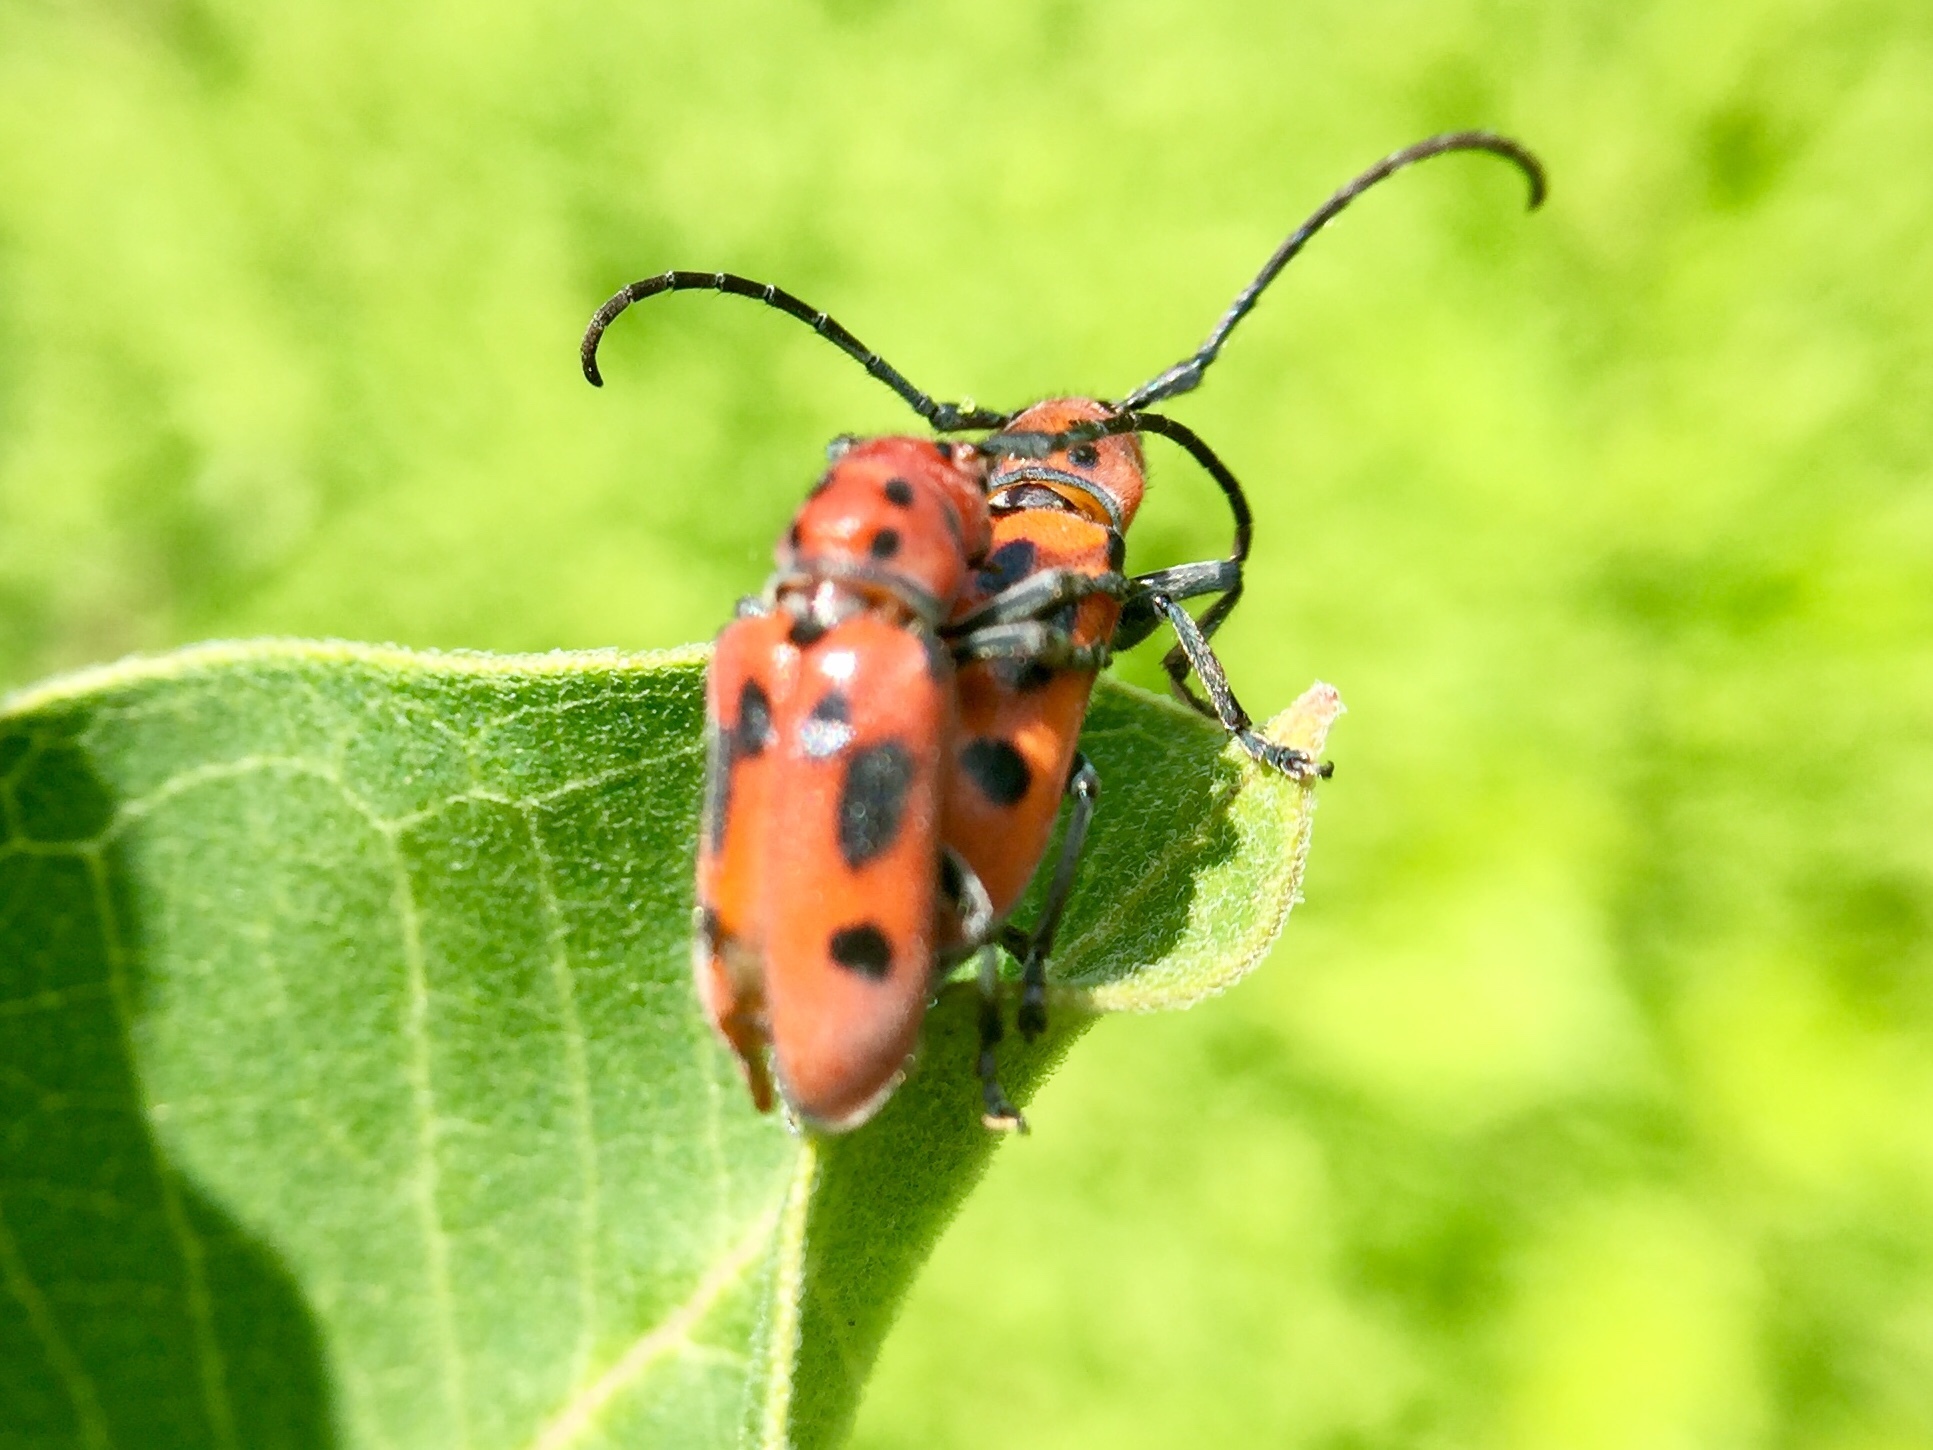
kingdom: Animalia
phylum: Arthropoda
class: Insecta
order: Coleoptera
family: Cerambycidae
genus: Tetraopes
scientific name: Tetraopes tetrophthalmus
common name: Red milkweed beetle
